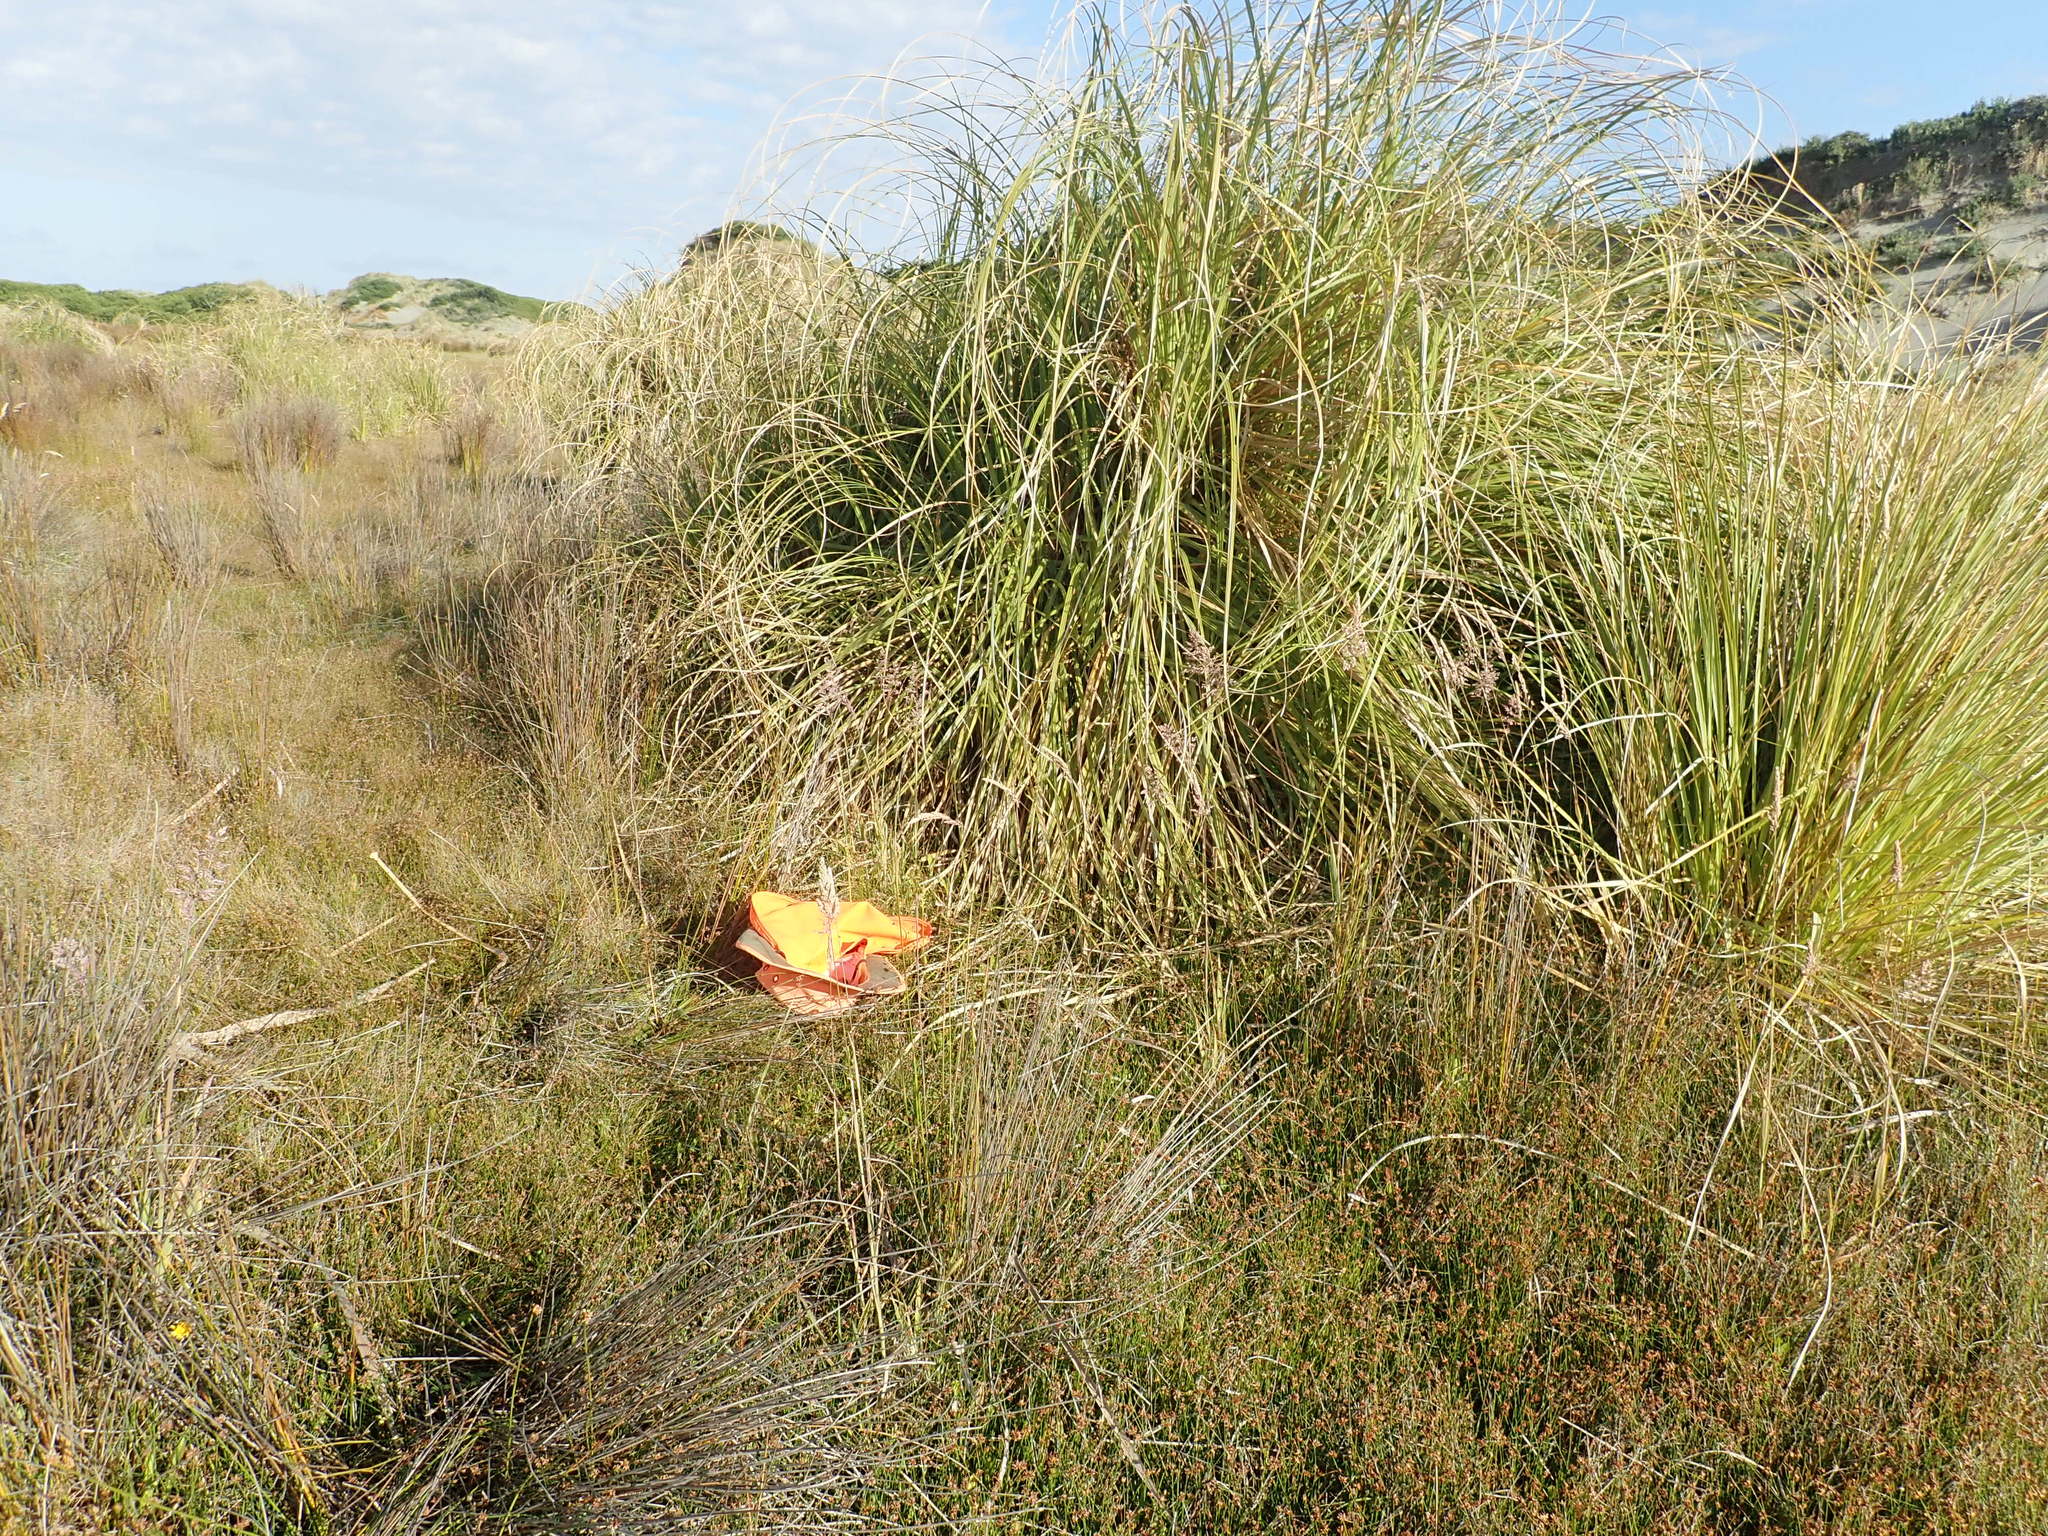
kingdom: Plantae
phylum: Tracheophyta
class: Liliopsida
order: Asparagales
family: Orchidaceae
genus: Microtis
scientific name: Microtis unifolia
